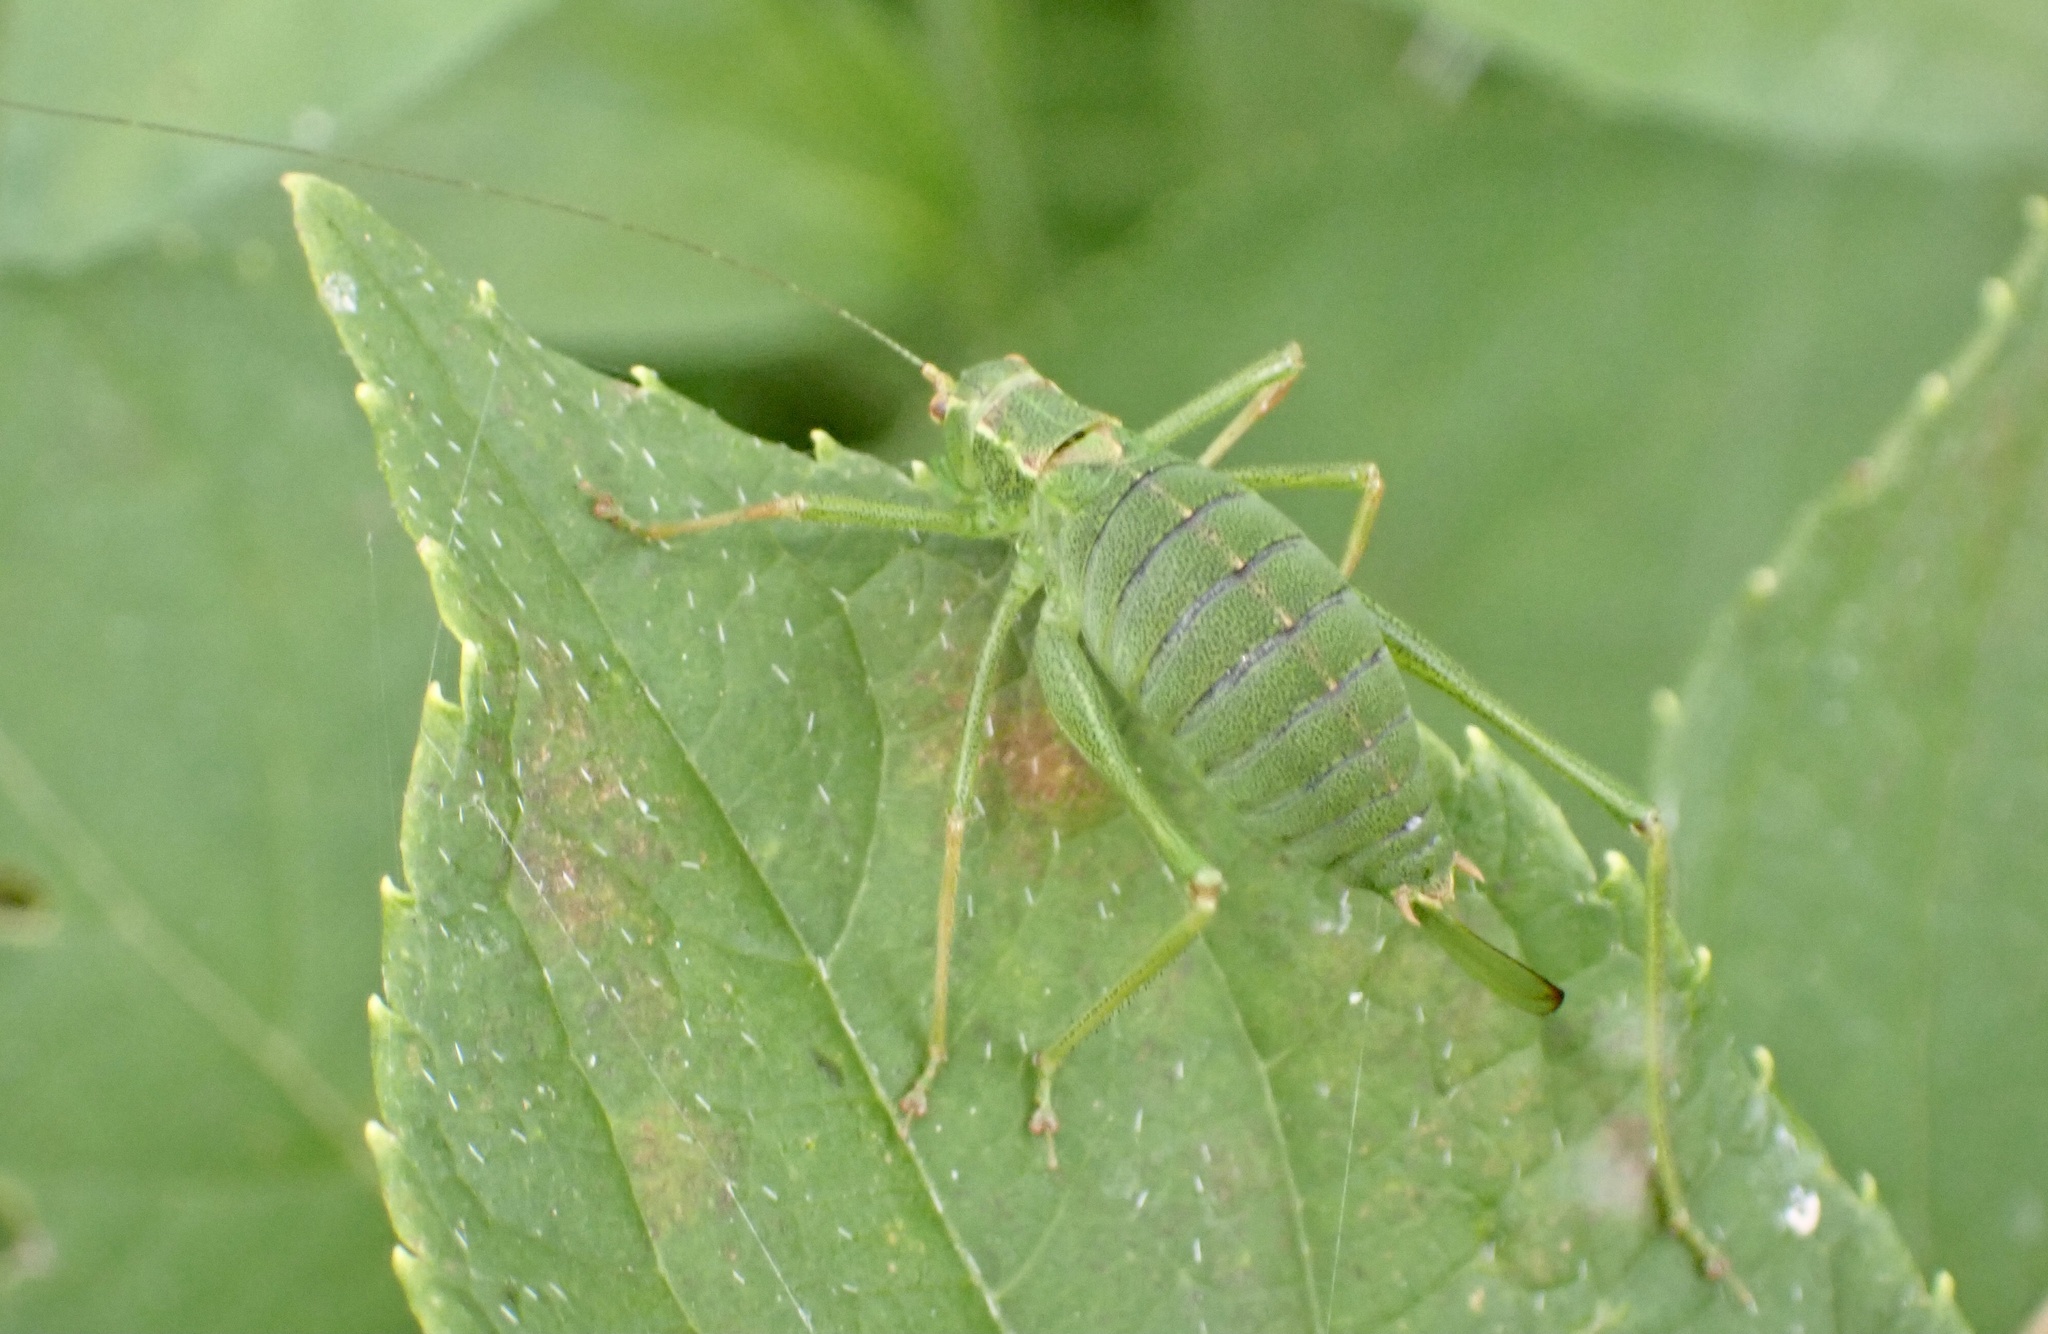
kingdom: Animalia
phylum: Arthropoda
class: Insecta
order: Orthoptera
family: Tettigoniidae
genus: Leptophyes
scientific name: Leptophyes punctatissima
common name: Speckled bush-cricket
